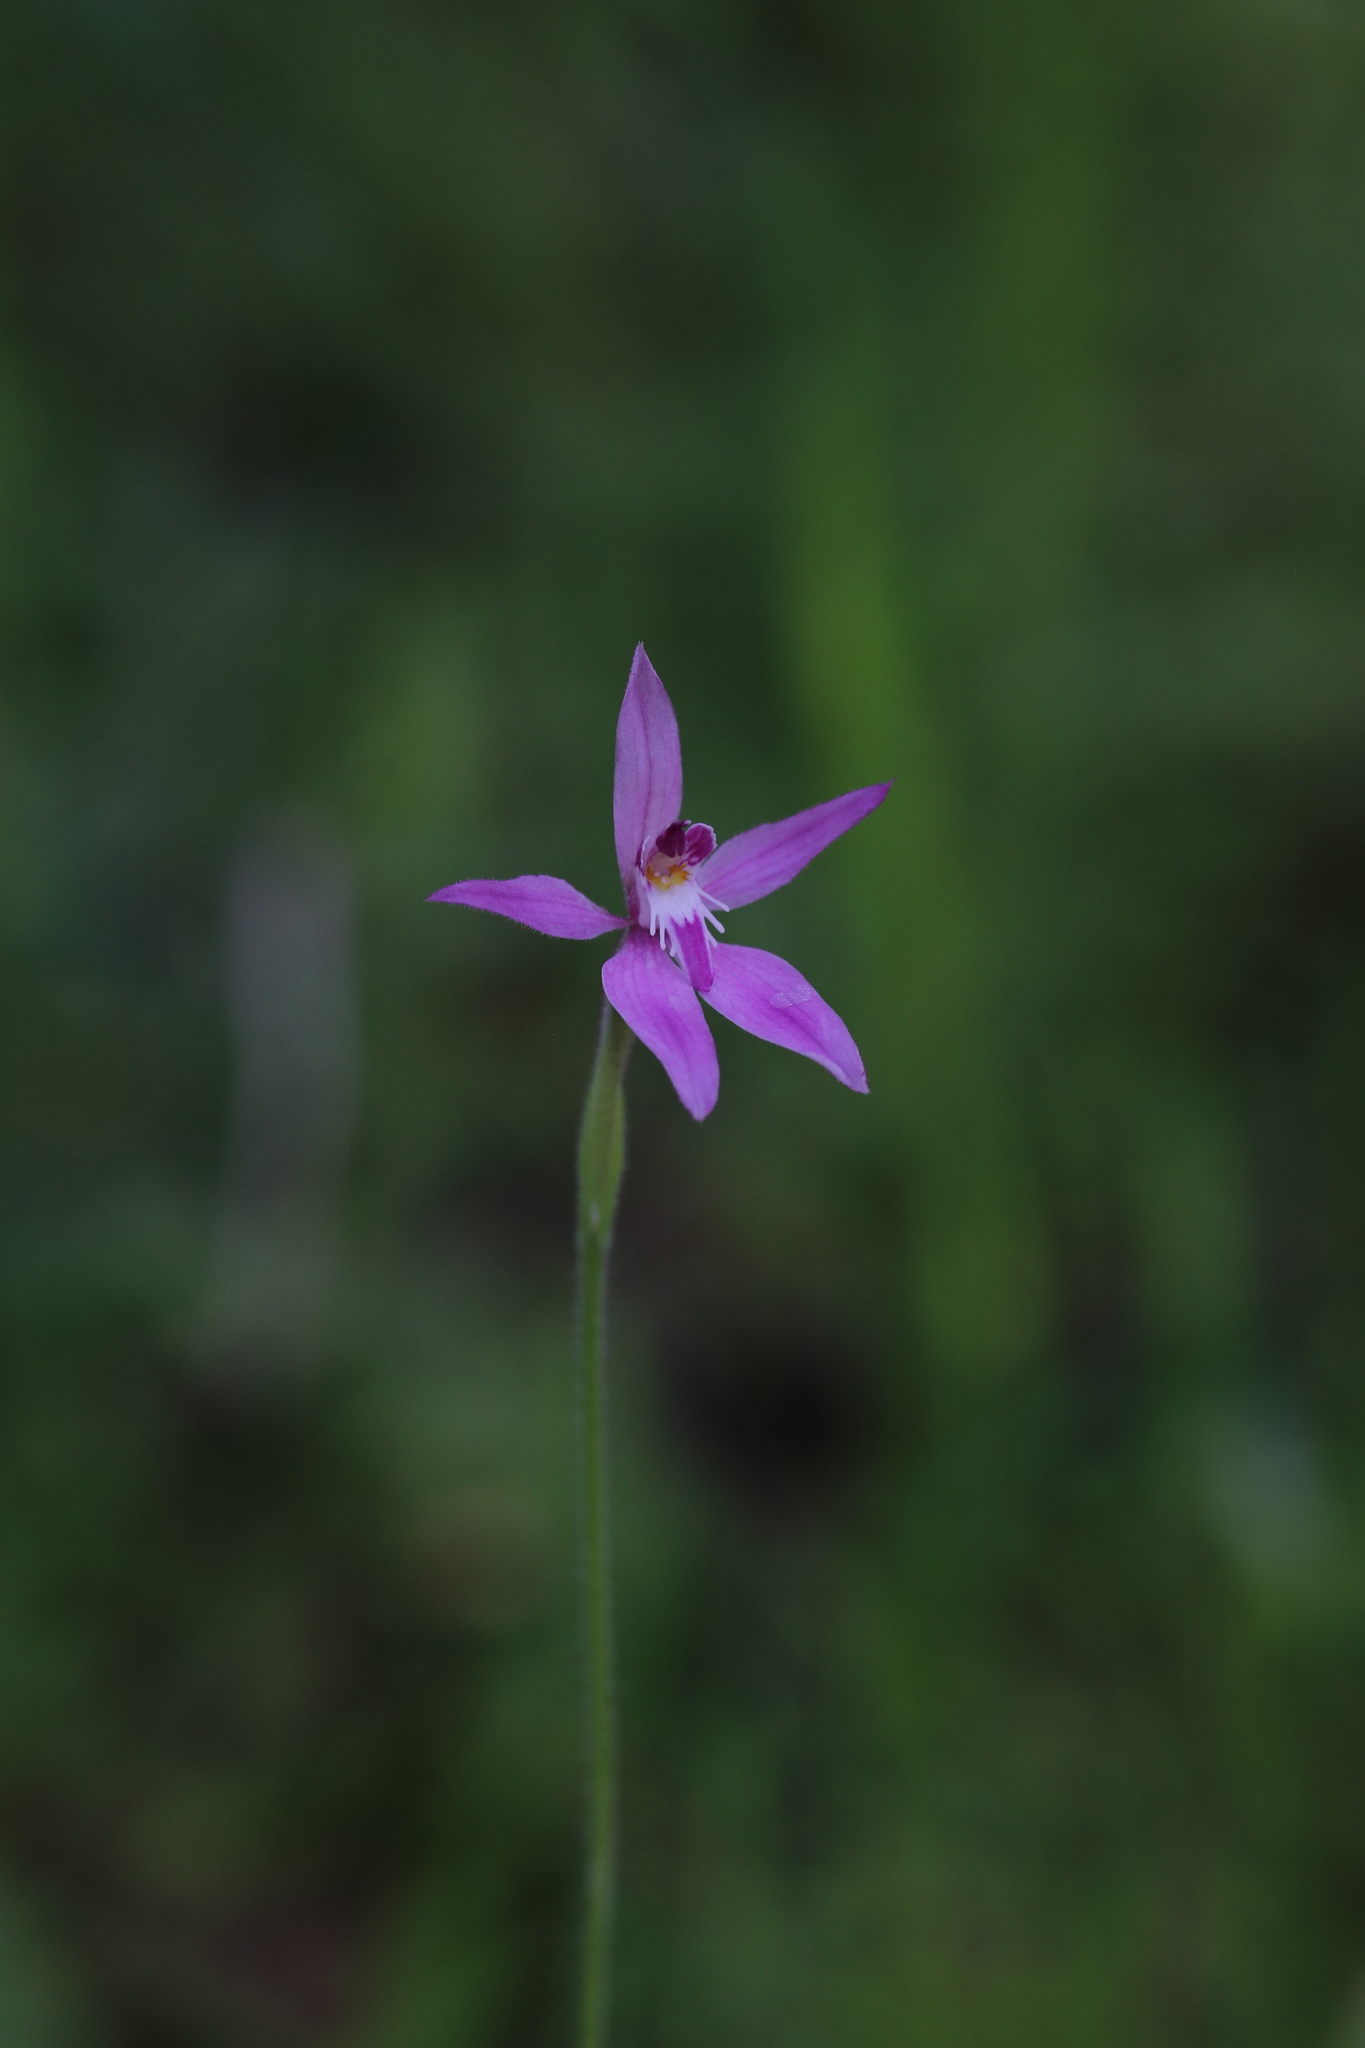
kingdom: Plantae
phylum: Tracheophyta
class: Liliopsida
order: Asparagales
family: Orchidaceae
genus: Caladenia
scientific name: Caladenia latifolia
